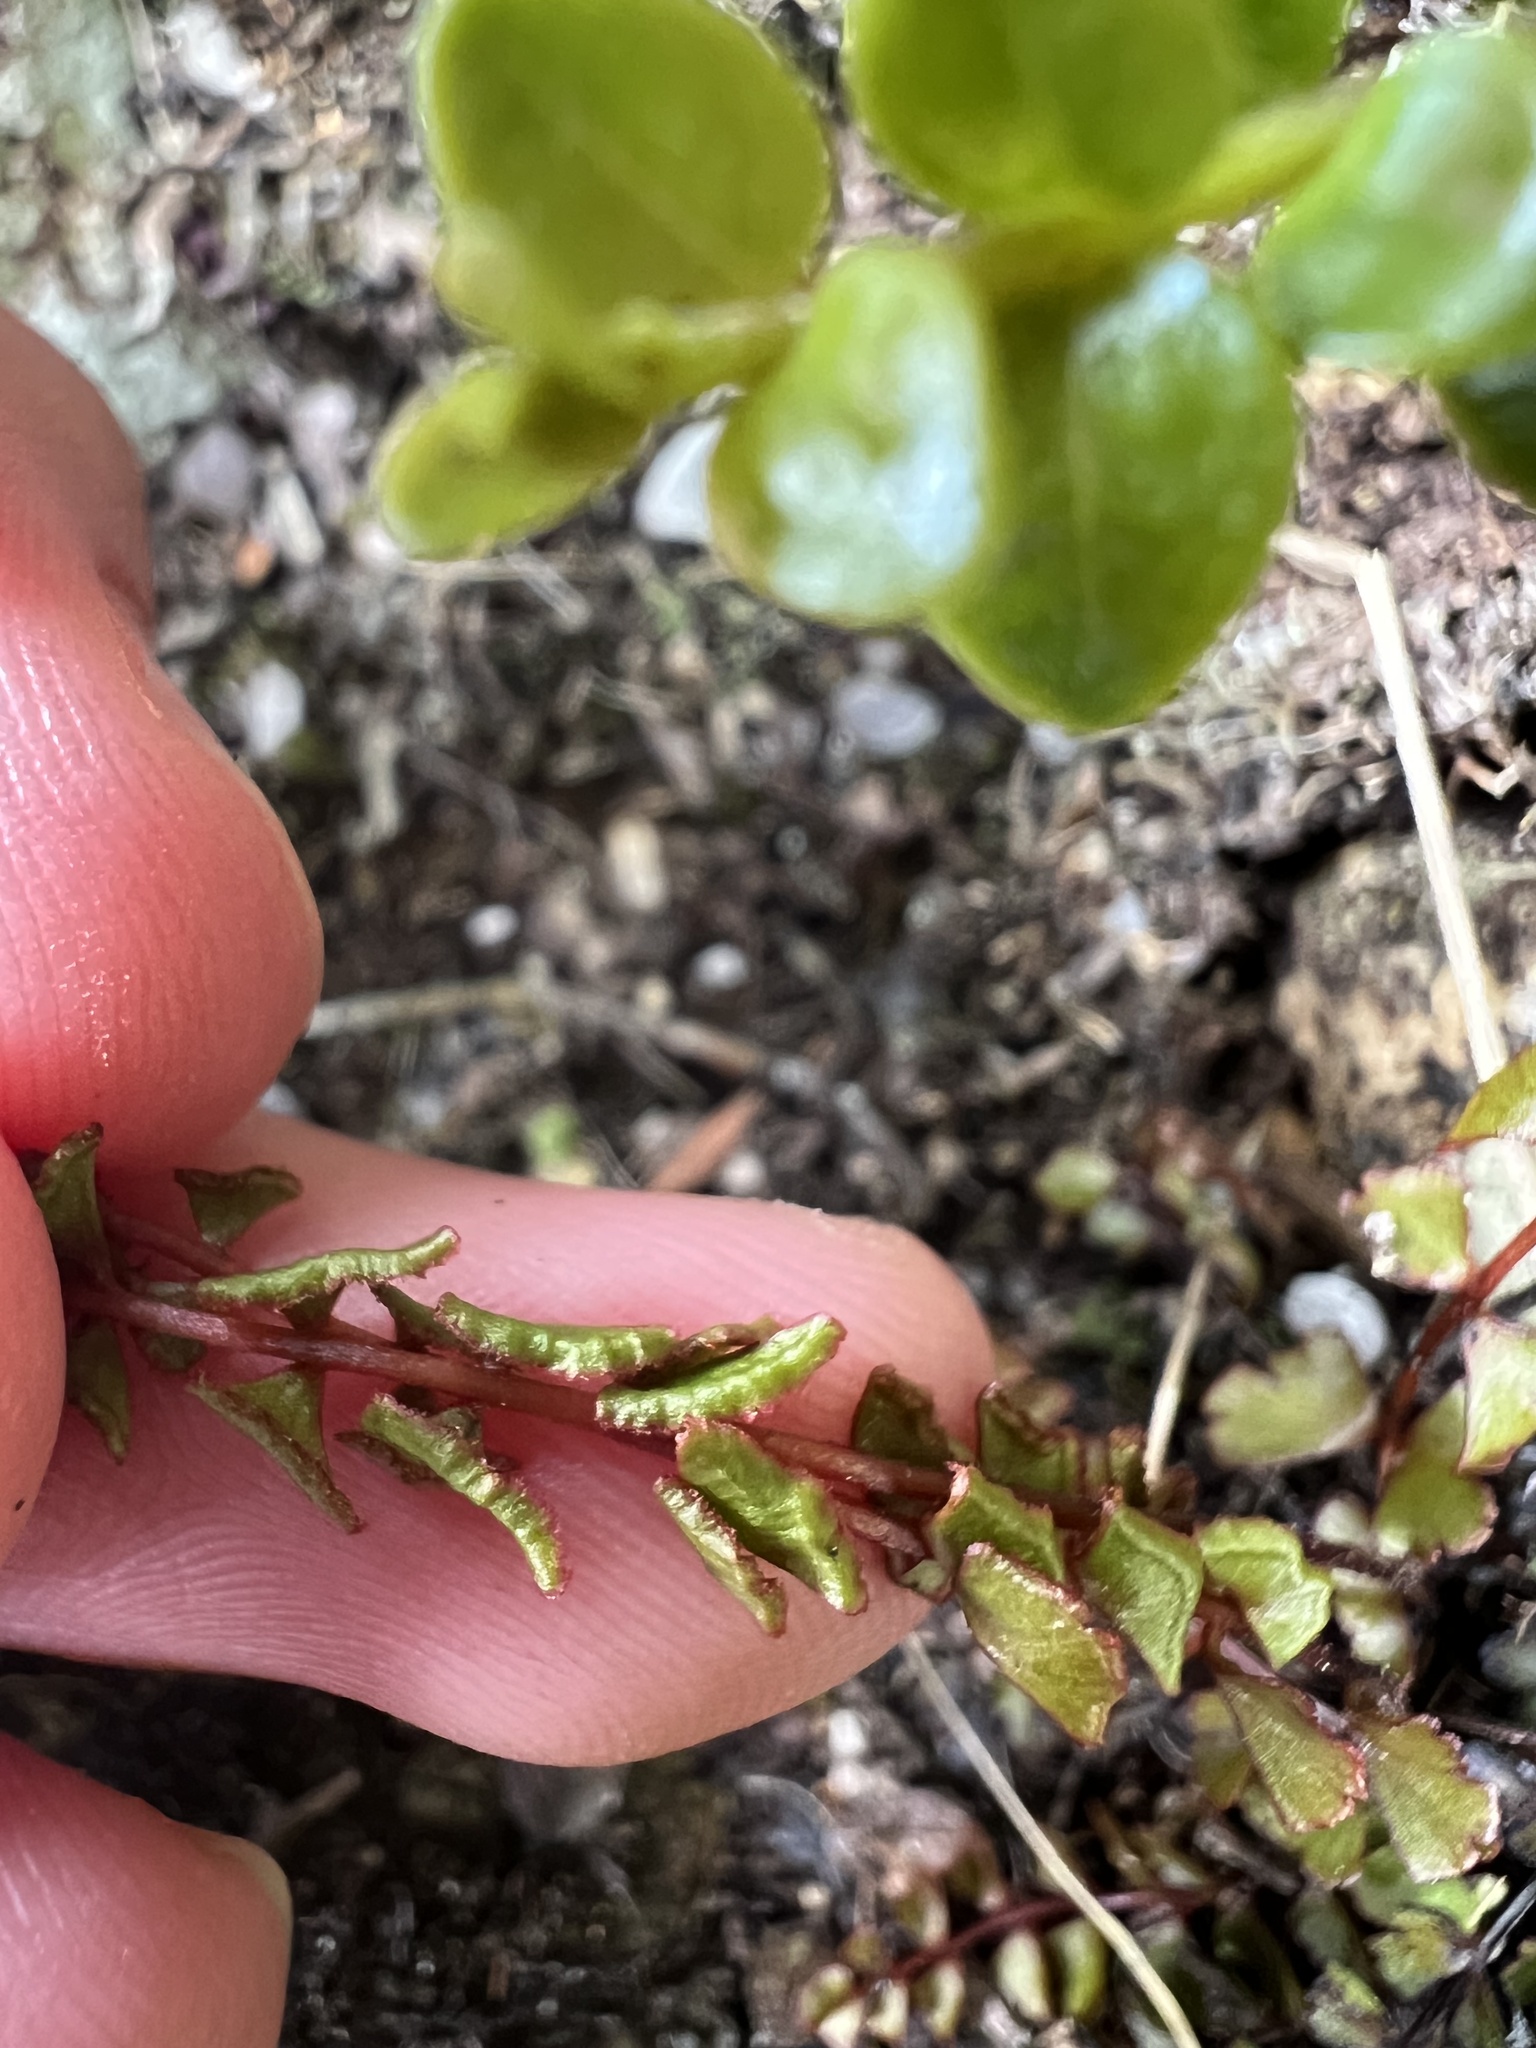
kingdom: Plantae
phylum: Tracheophyta
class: Polypodiopsida
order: Polypodiales
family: Lindsaeaceae
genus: Lindsaea
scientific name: Lindsaea linearis
